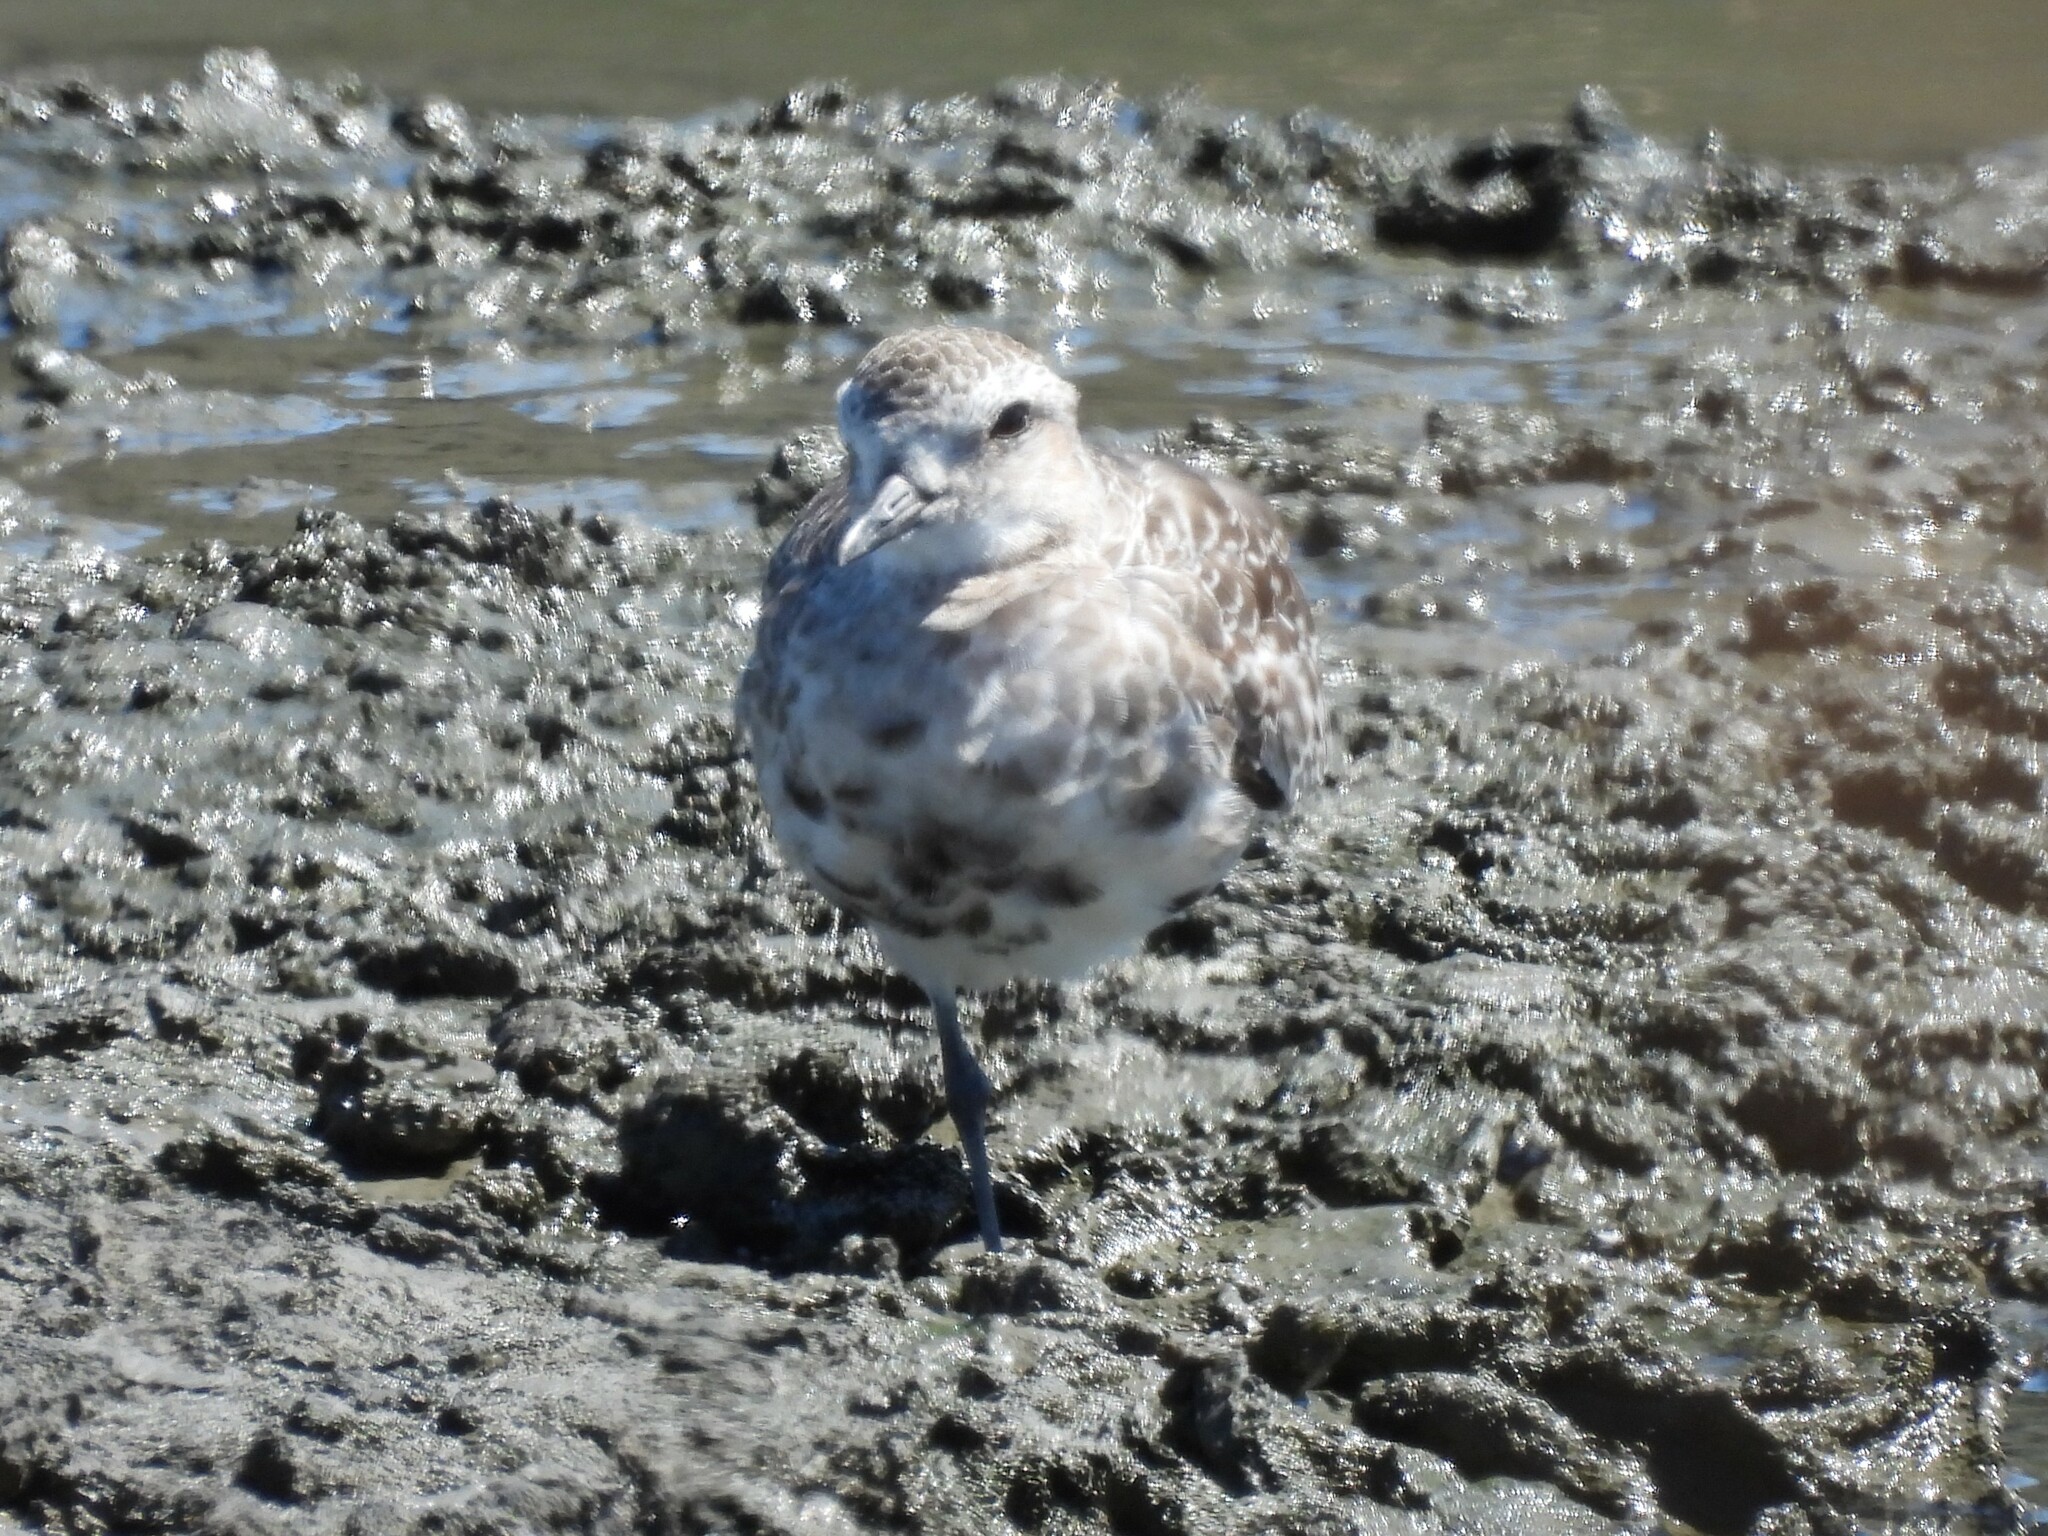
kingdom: Animalia
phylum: Chordata
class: Aves
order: Charadriiformes
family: Charadriidae
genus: Pluvialis
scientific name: Pluvialis squatarola
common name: Grey plover
